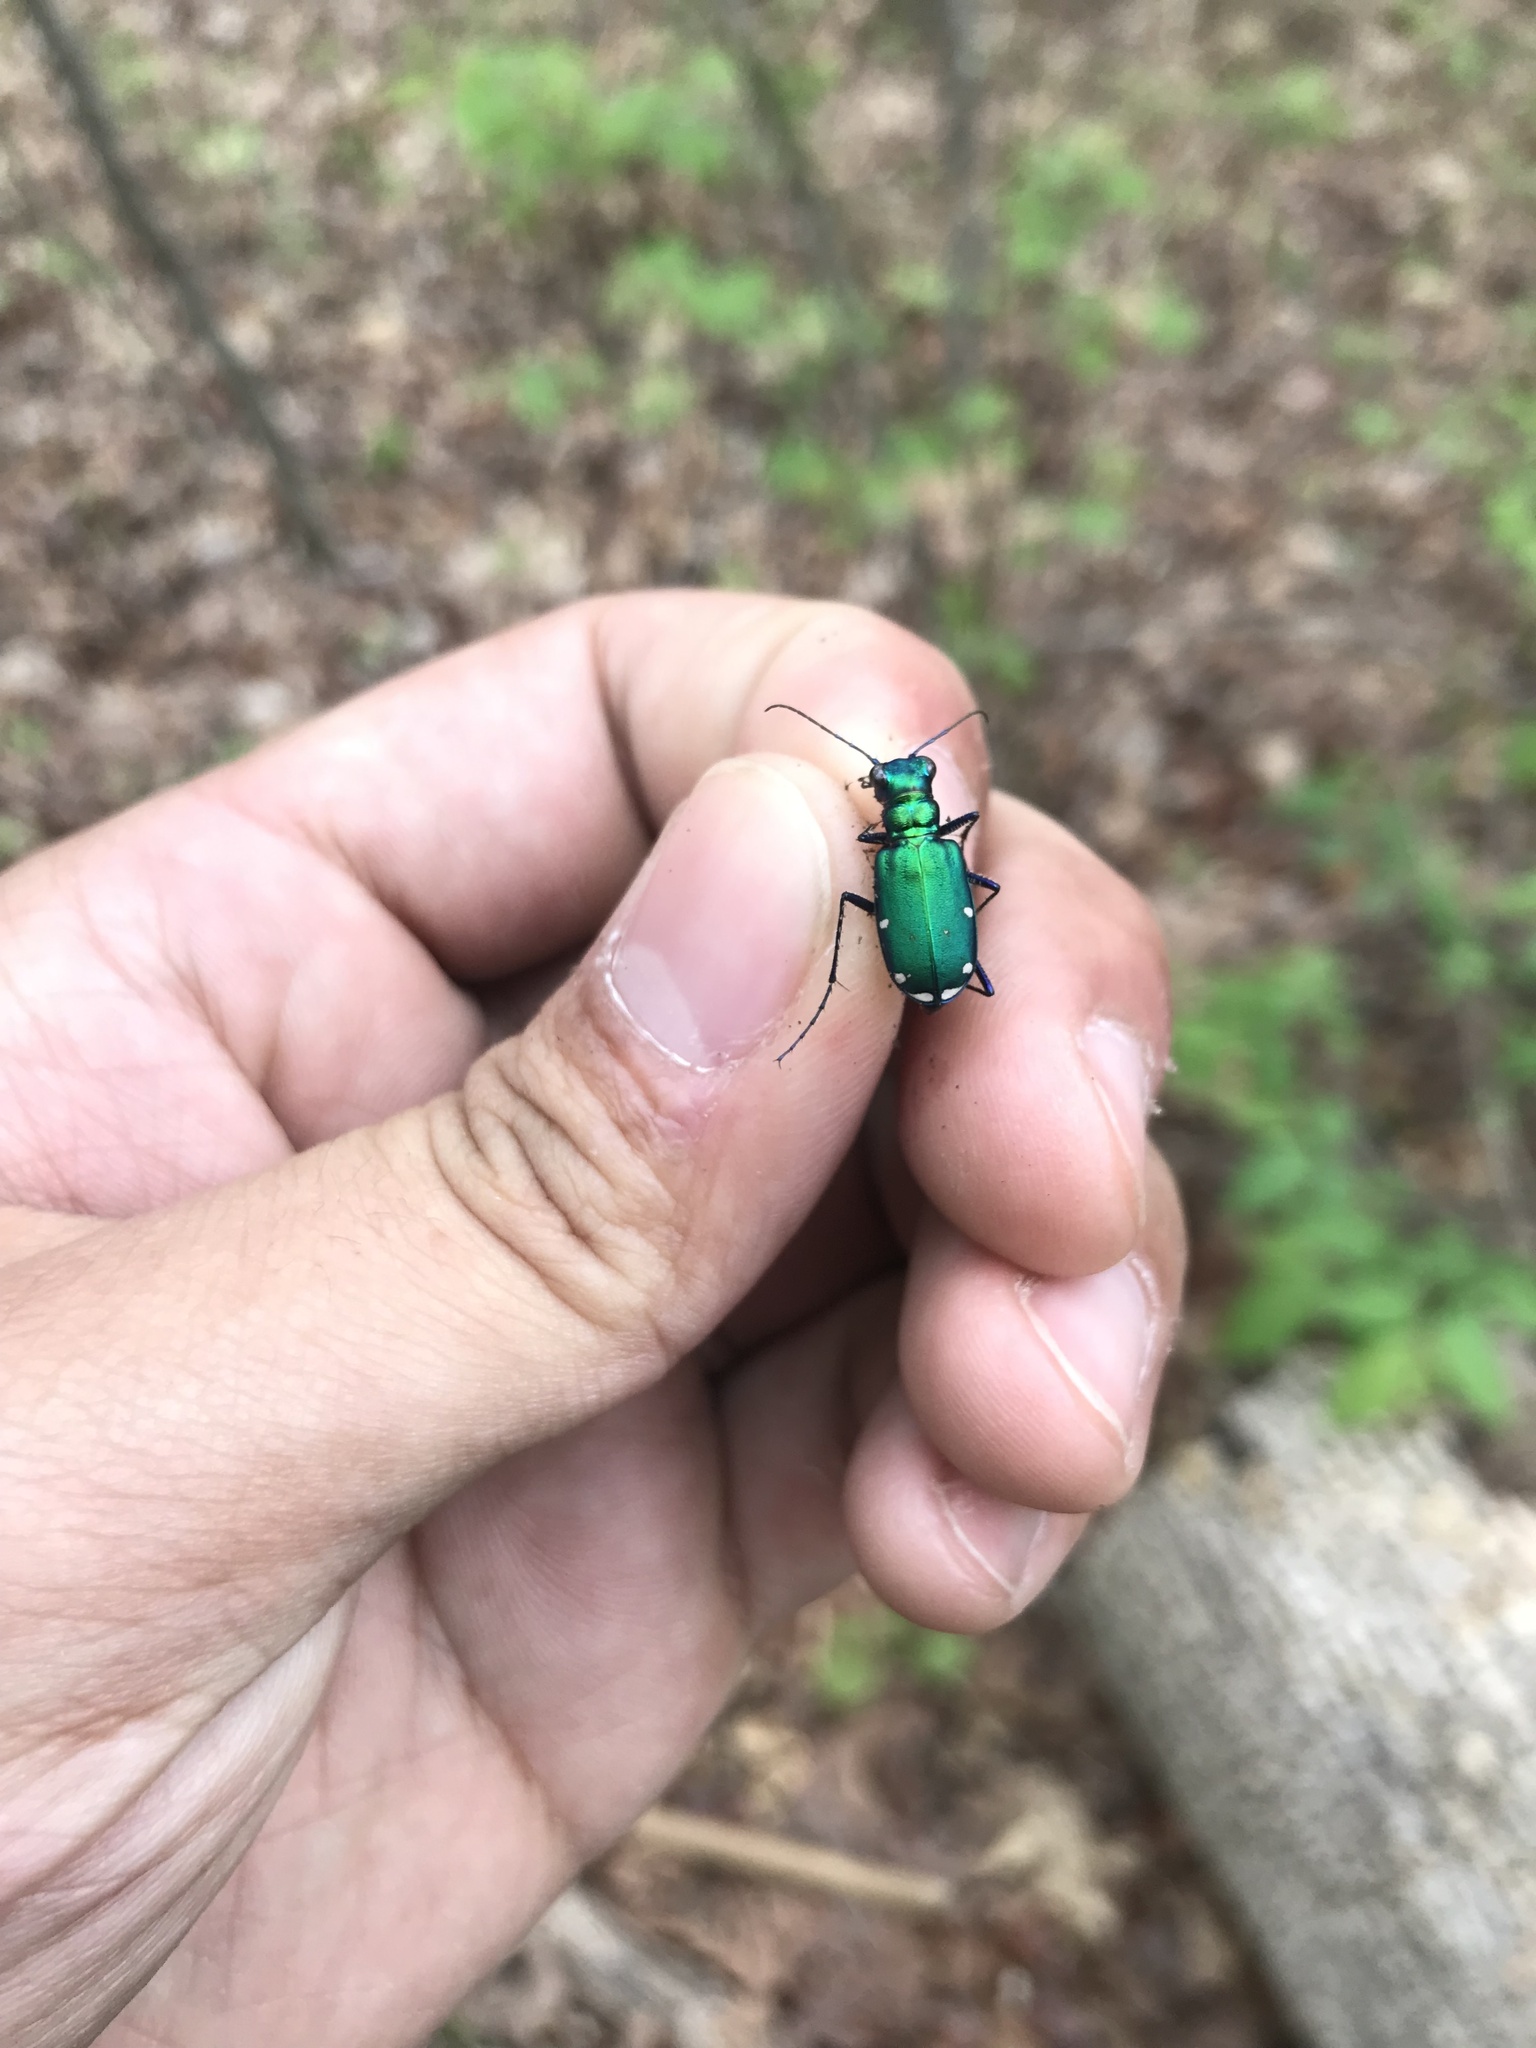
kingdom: Animalia
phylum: Arthropoda
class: Insecta
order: Coleoptera
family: Carabidae
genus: Cicindela
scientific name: Cicindela sexguttata
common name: Six-spotted tiger beetle
